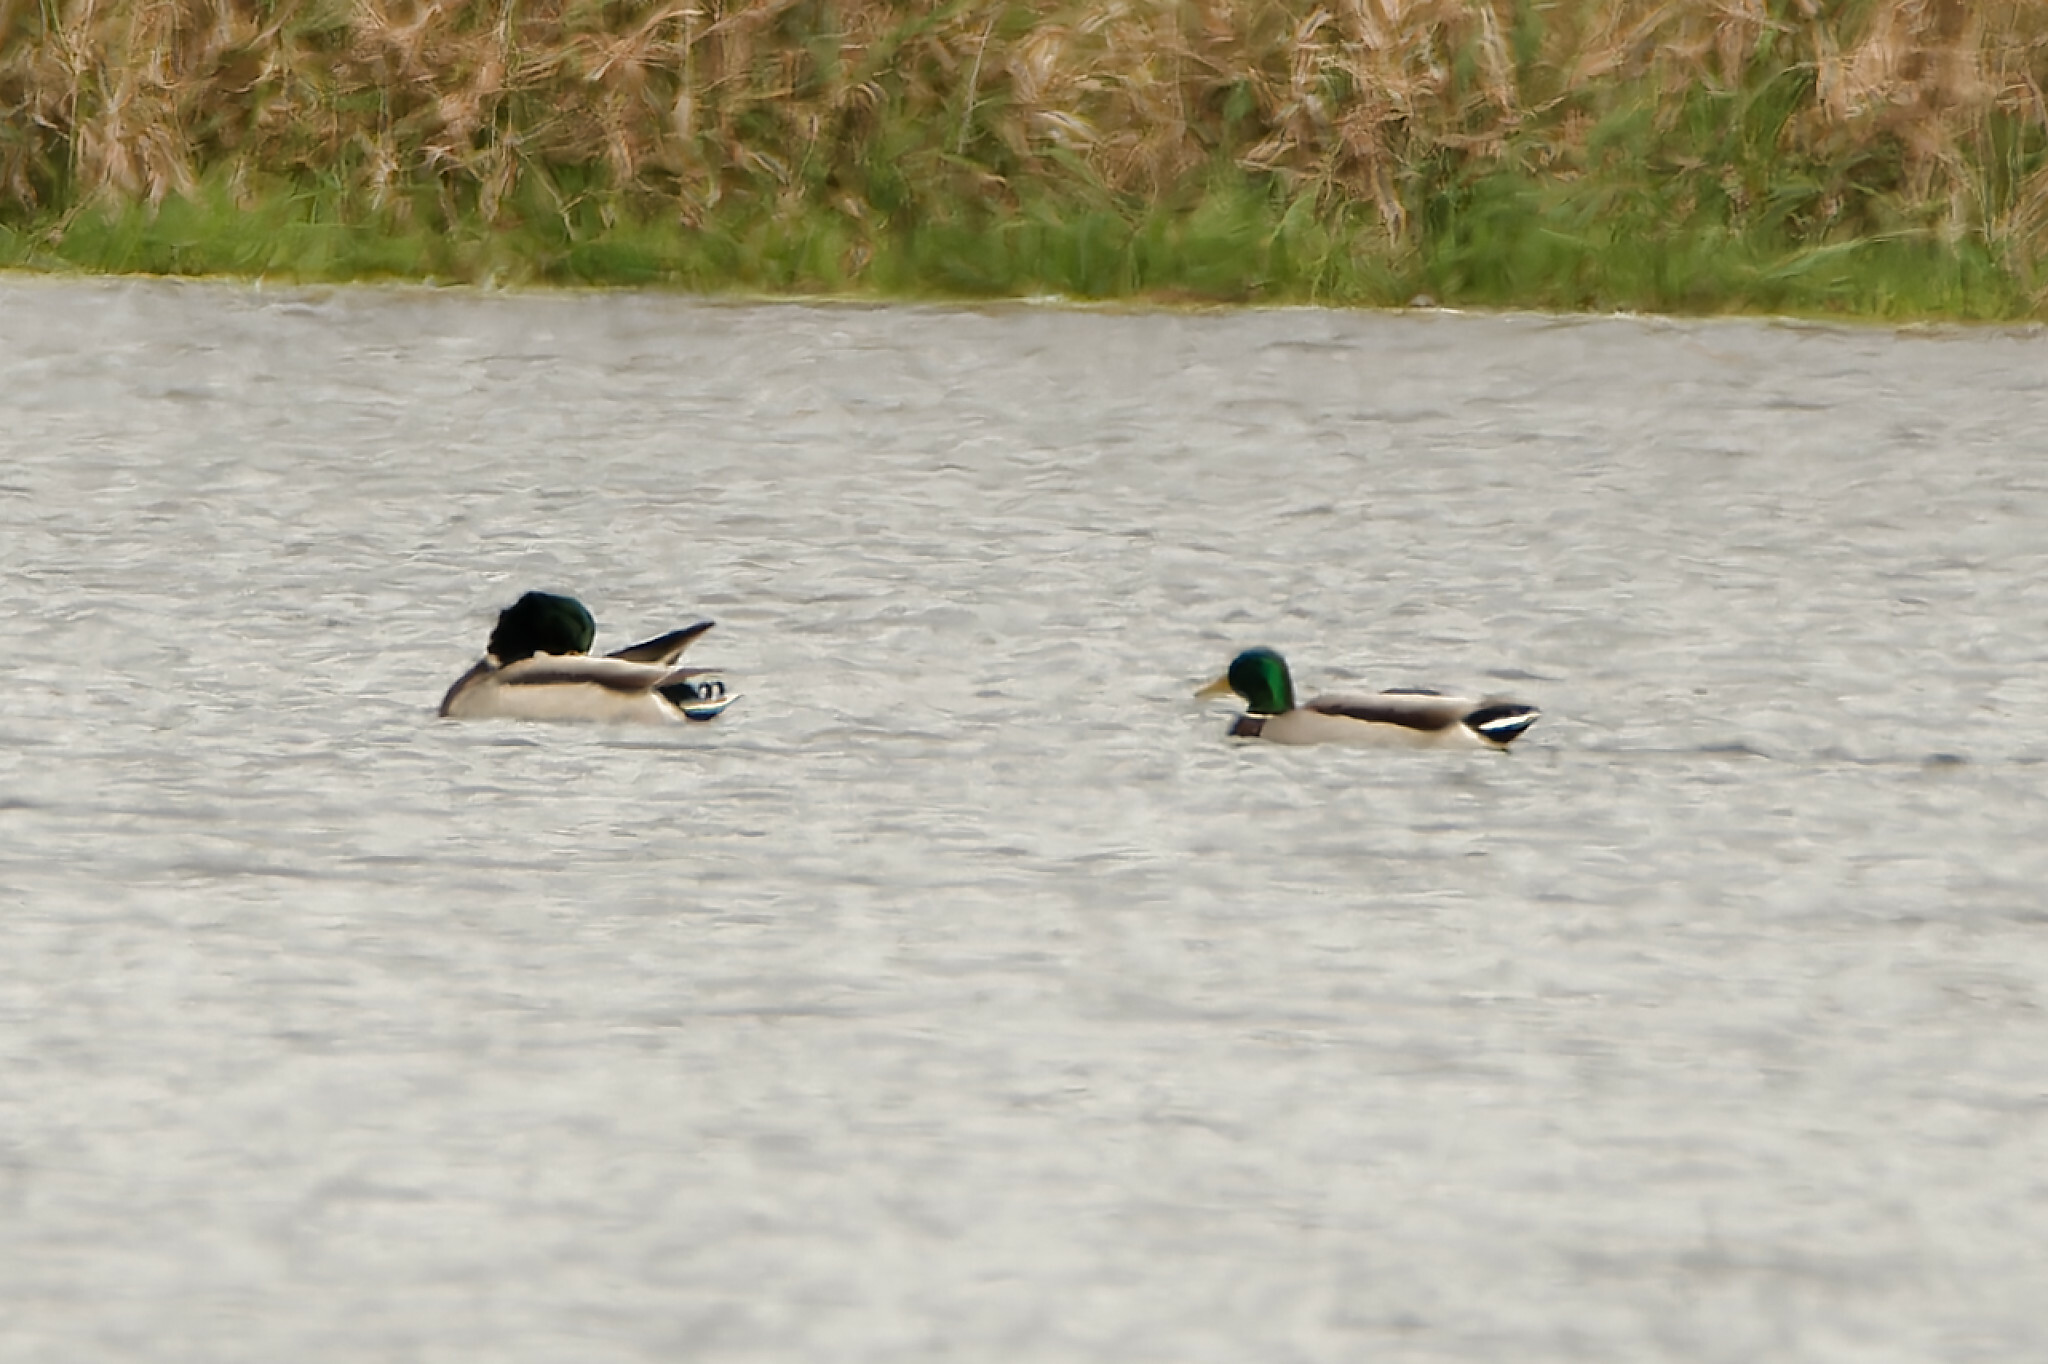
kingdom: Animalia
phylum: Chordata
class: Aves
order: Anseriformes
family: Anatidae
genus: Anas
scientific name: Anas platyrhynchos
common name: Mallard
